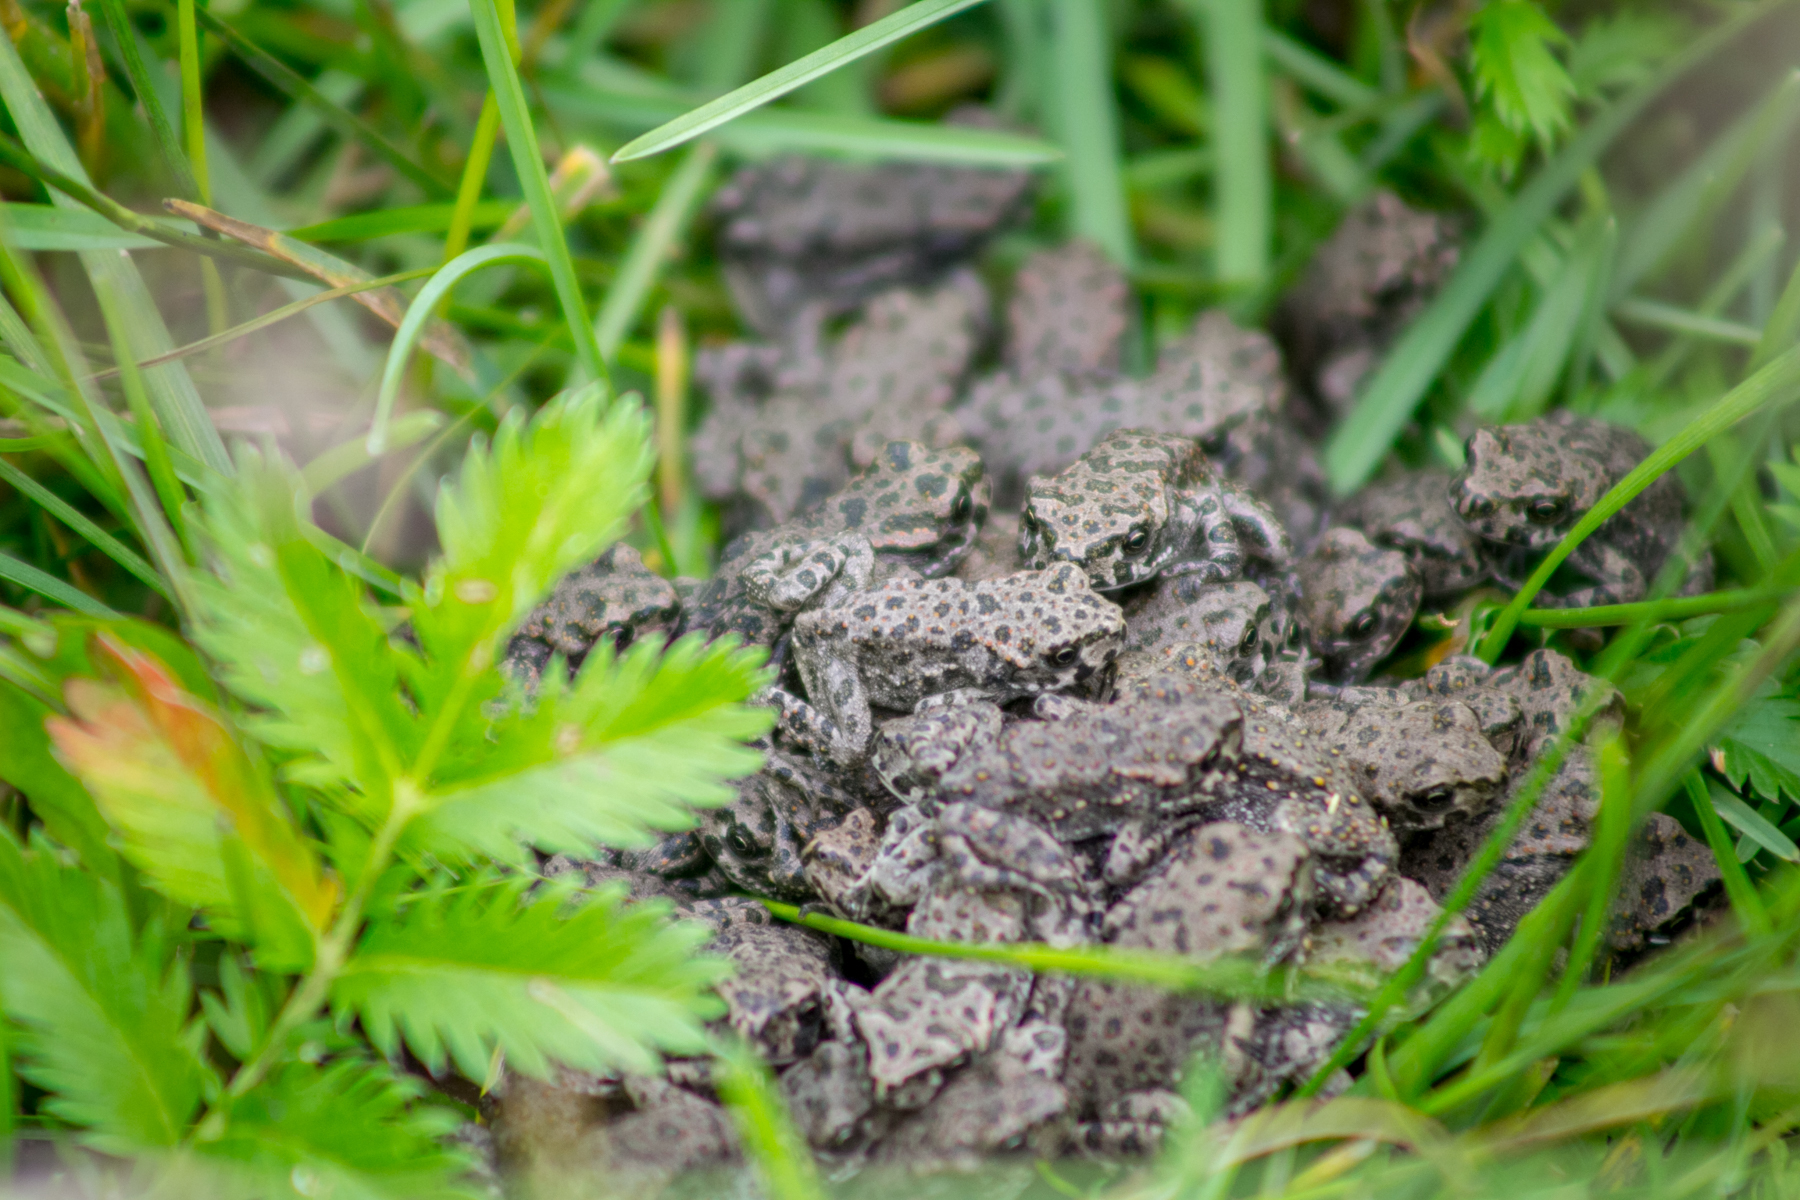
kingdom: Animalia
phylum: Chordata
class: Amphibia
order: Anura
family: Bufonidae
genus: Bufotes
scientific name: Bufotes viridis
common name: European green toad
